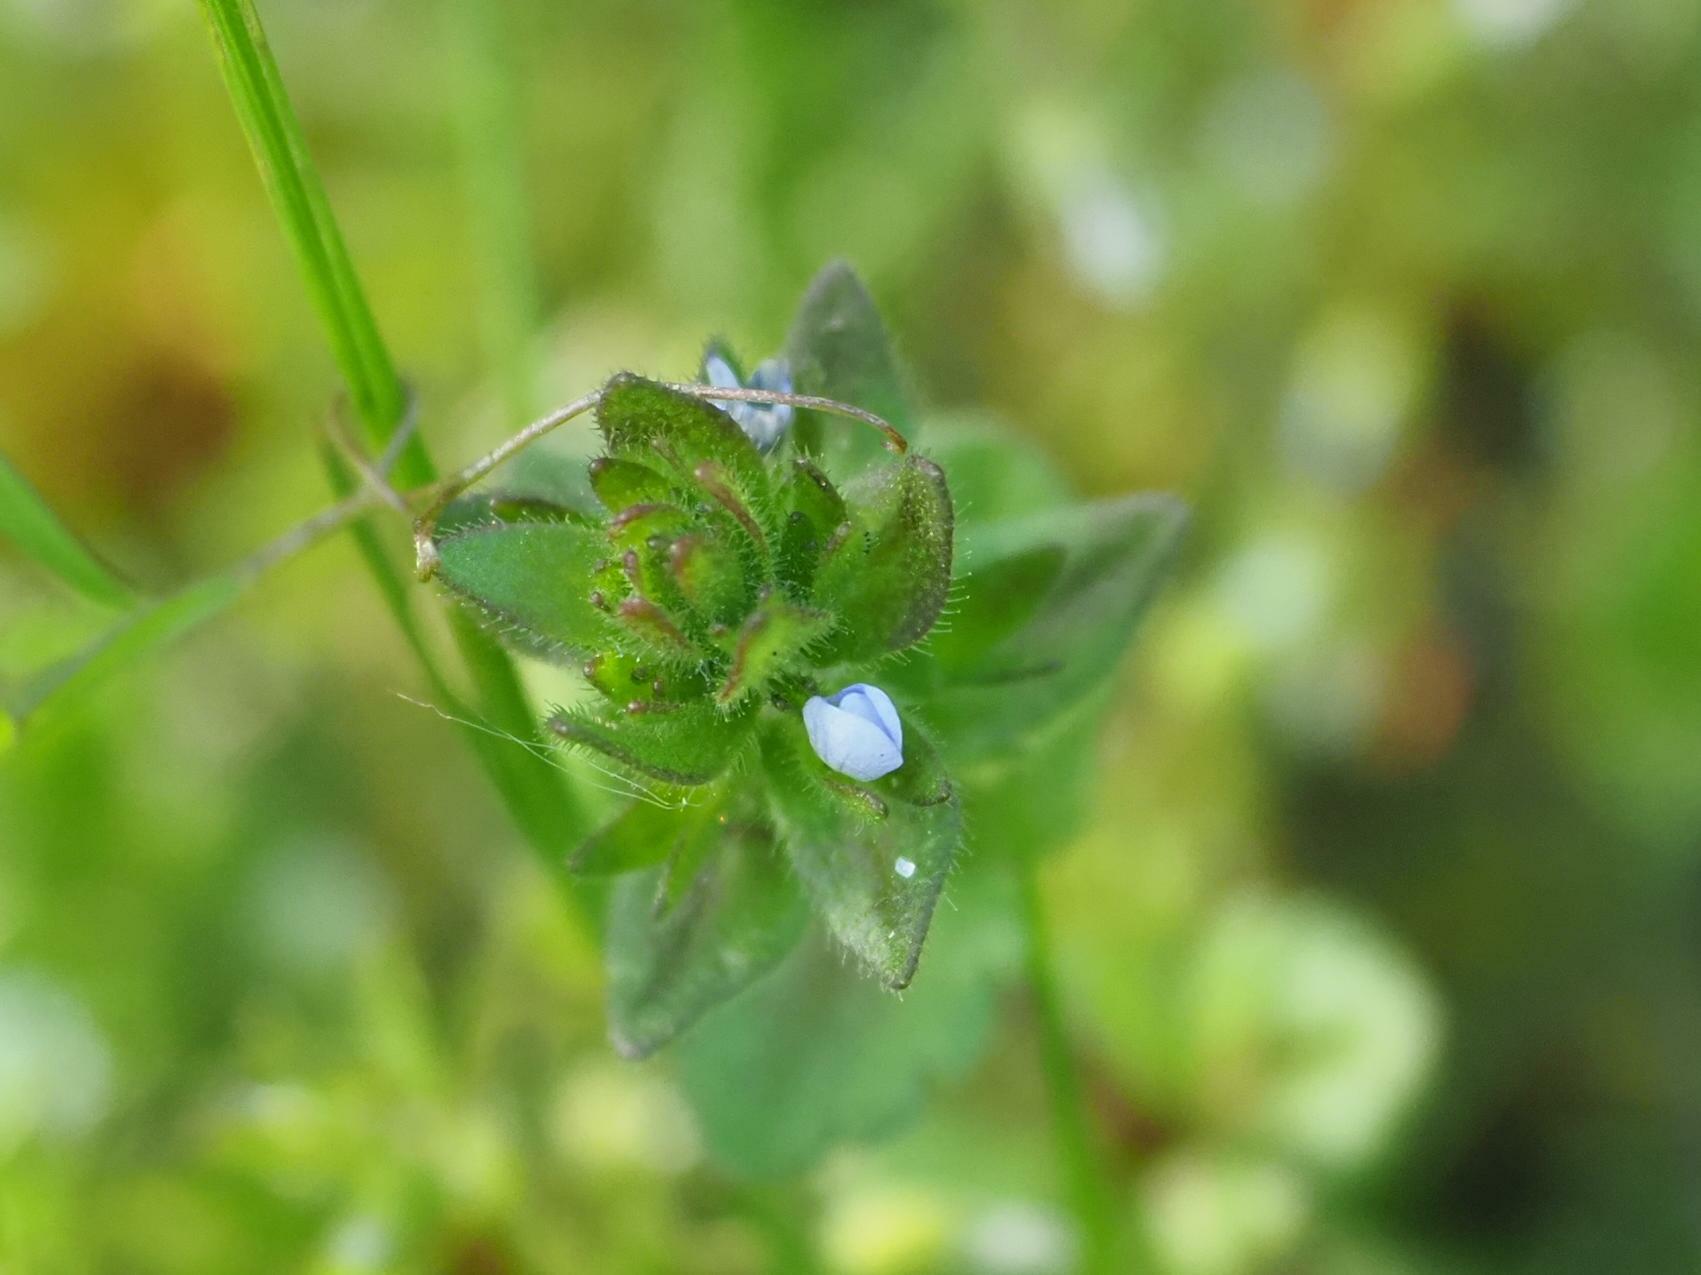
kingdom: Plantae
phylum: Tracheophyta
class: Magnoliopsida
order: Lamiales
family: Plantaginaceae
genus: Veronica
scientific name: Veronica arvensis
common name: Corn speedwell
